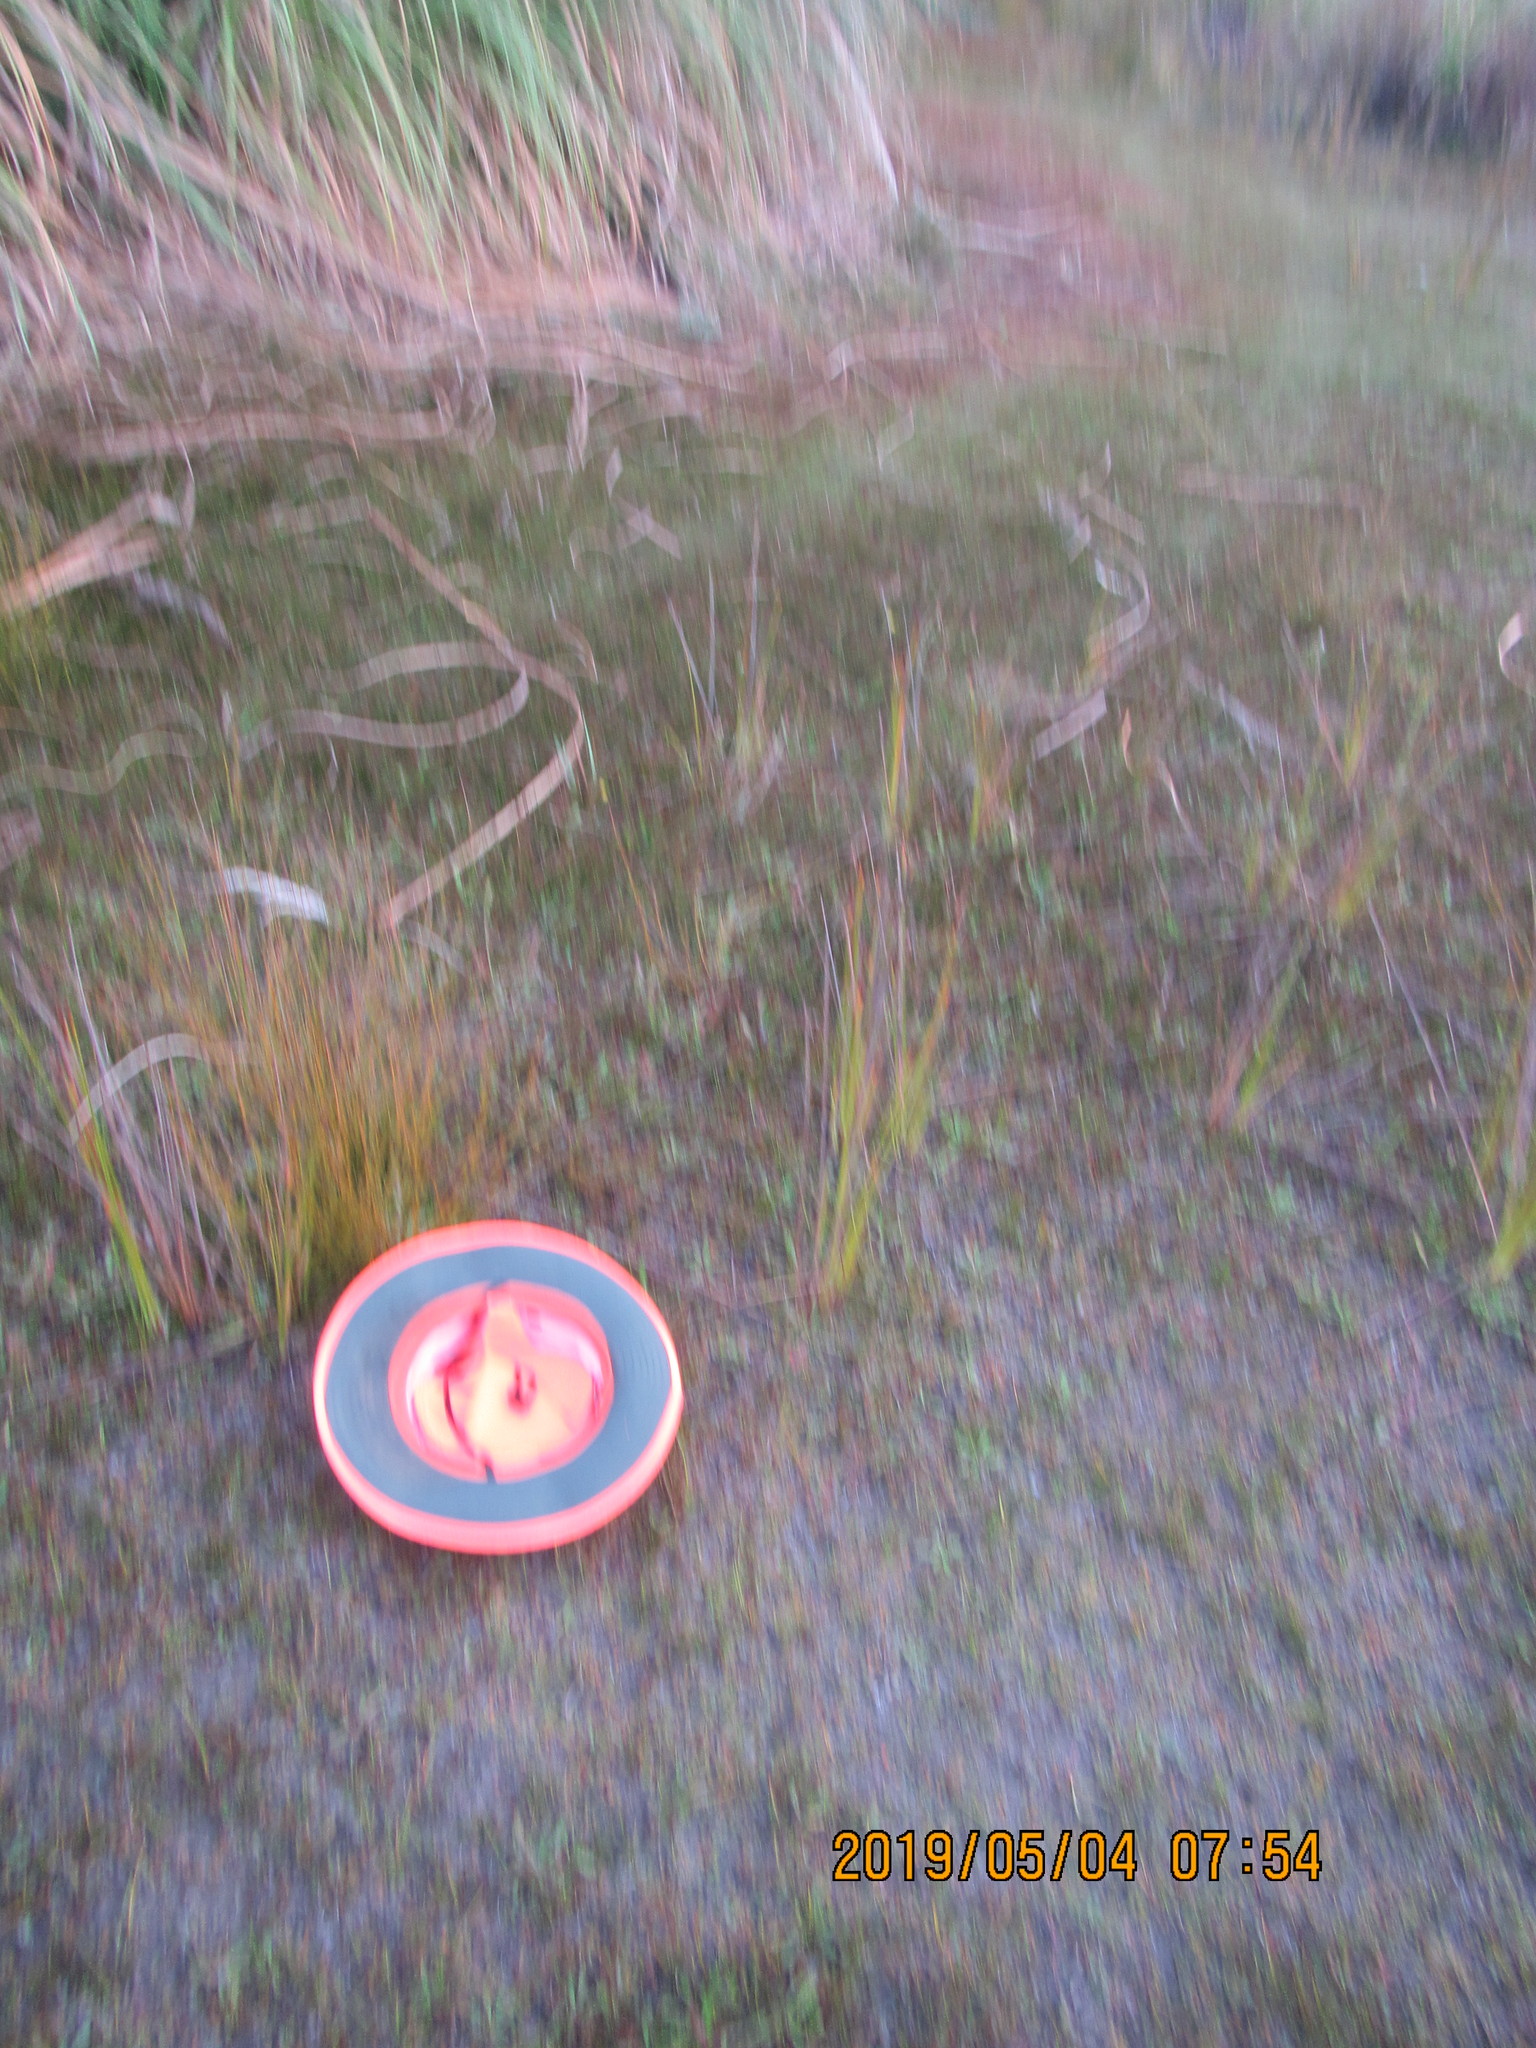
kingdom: Plantae
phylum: Tracheophyta
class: Magnoliopsida
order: Asterales
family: Campanulaceae
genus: Lobelia
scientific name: Lobelia anceps
